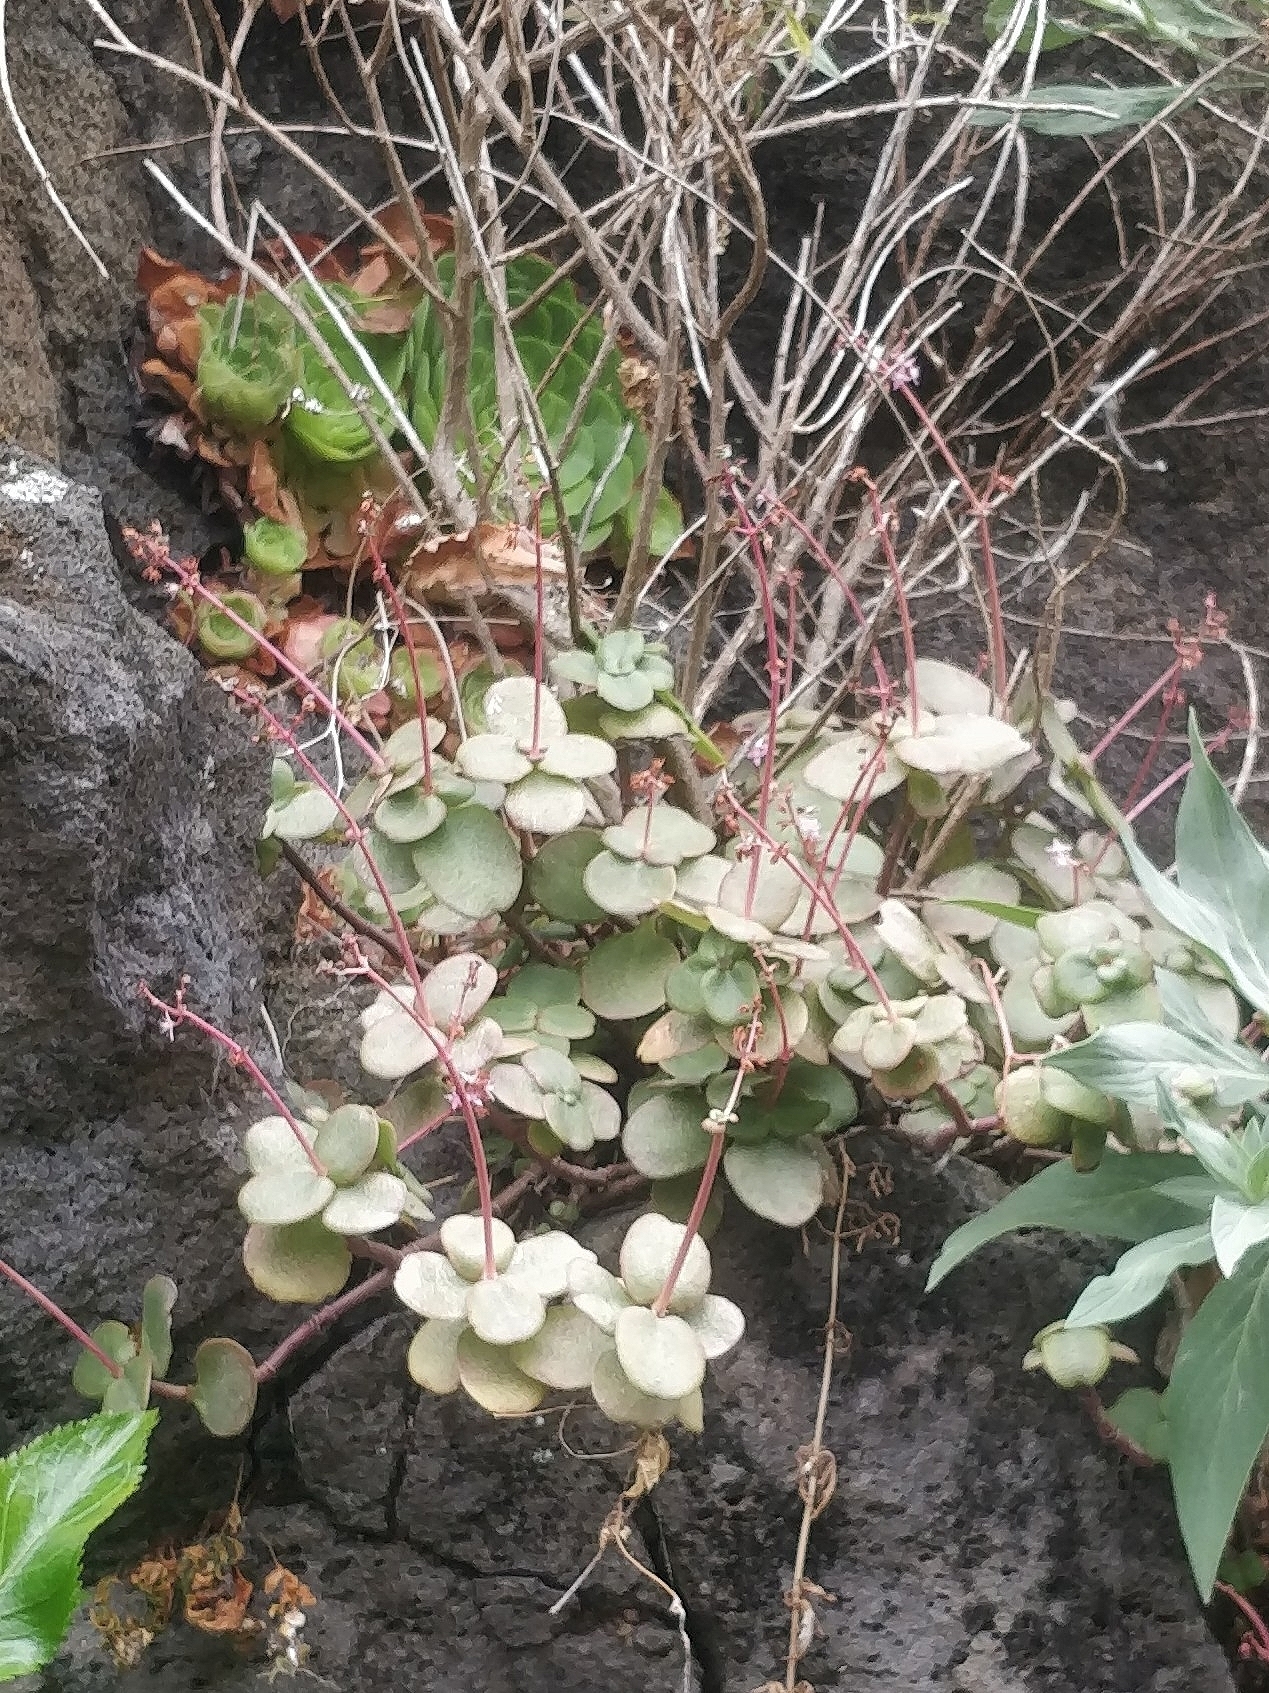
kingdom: Plantae
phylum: Tracheophyta
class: Magnoliopsida
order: Saxifragales
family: Crassulaceae
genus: Crassula
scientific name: Crassula multicava
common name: Cape province pygmyweed
